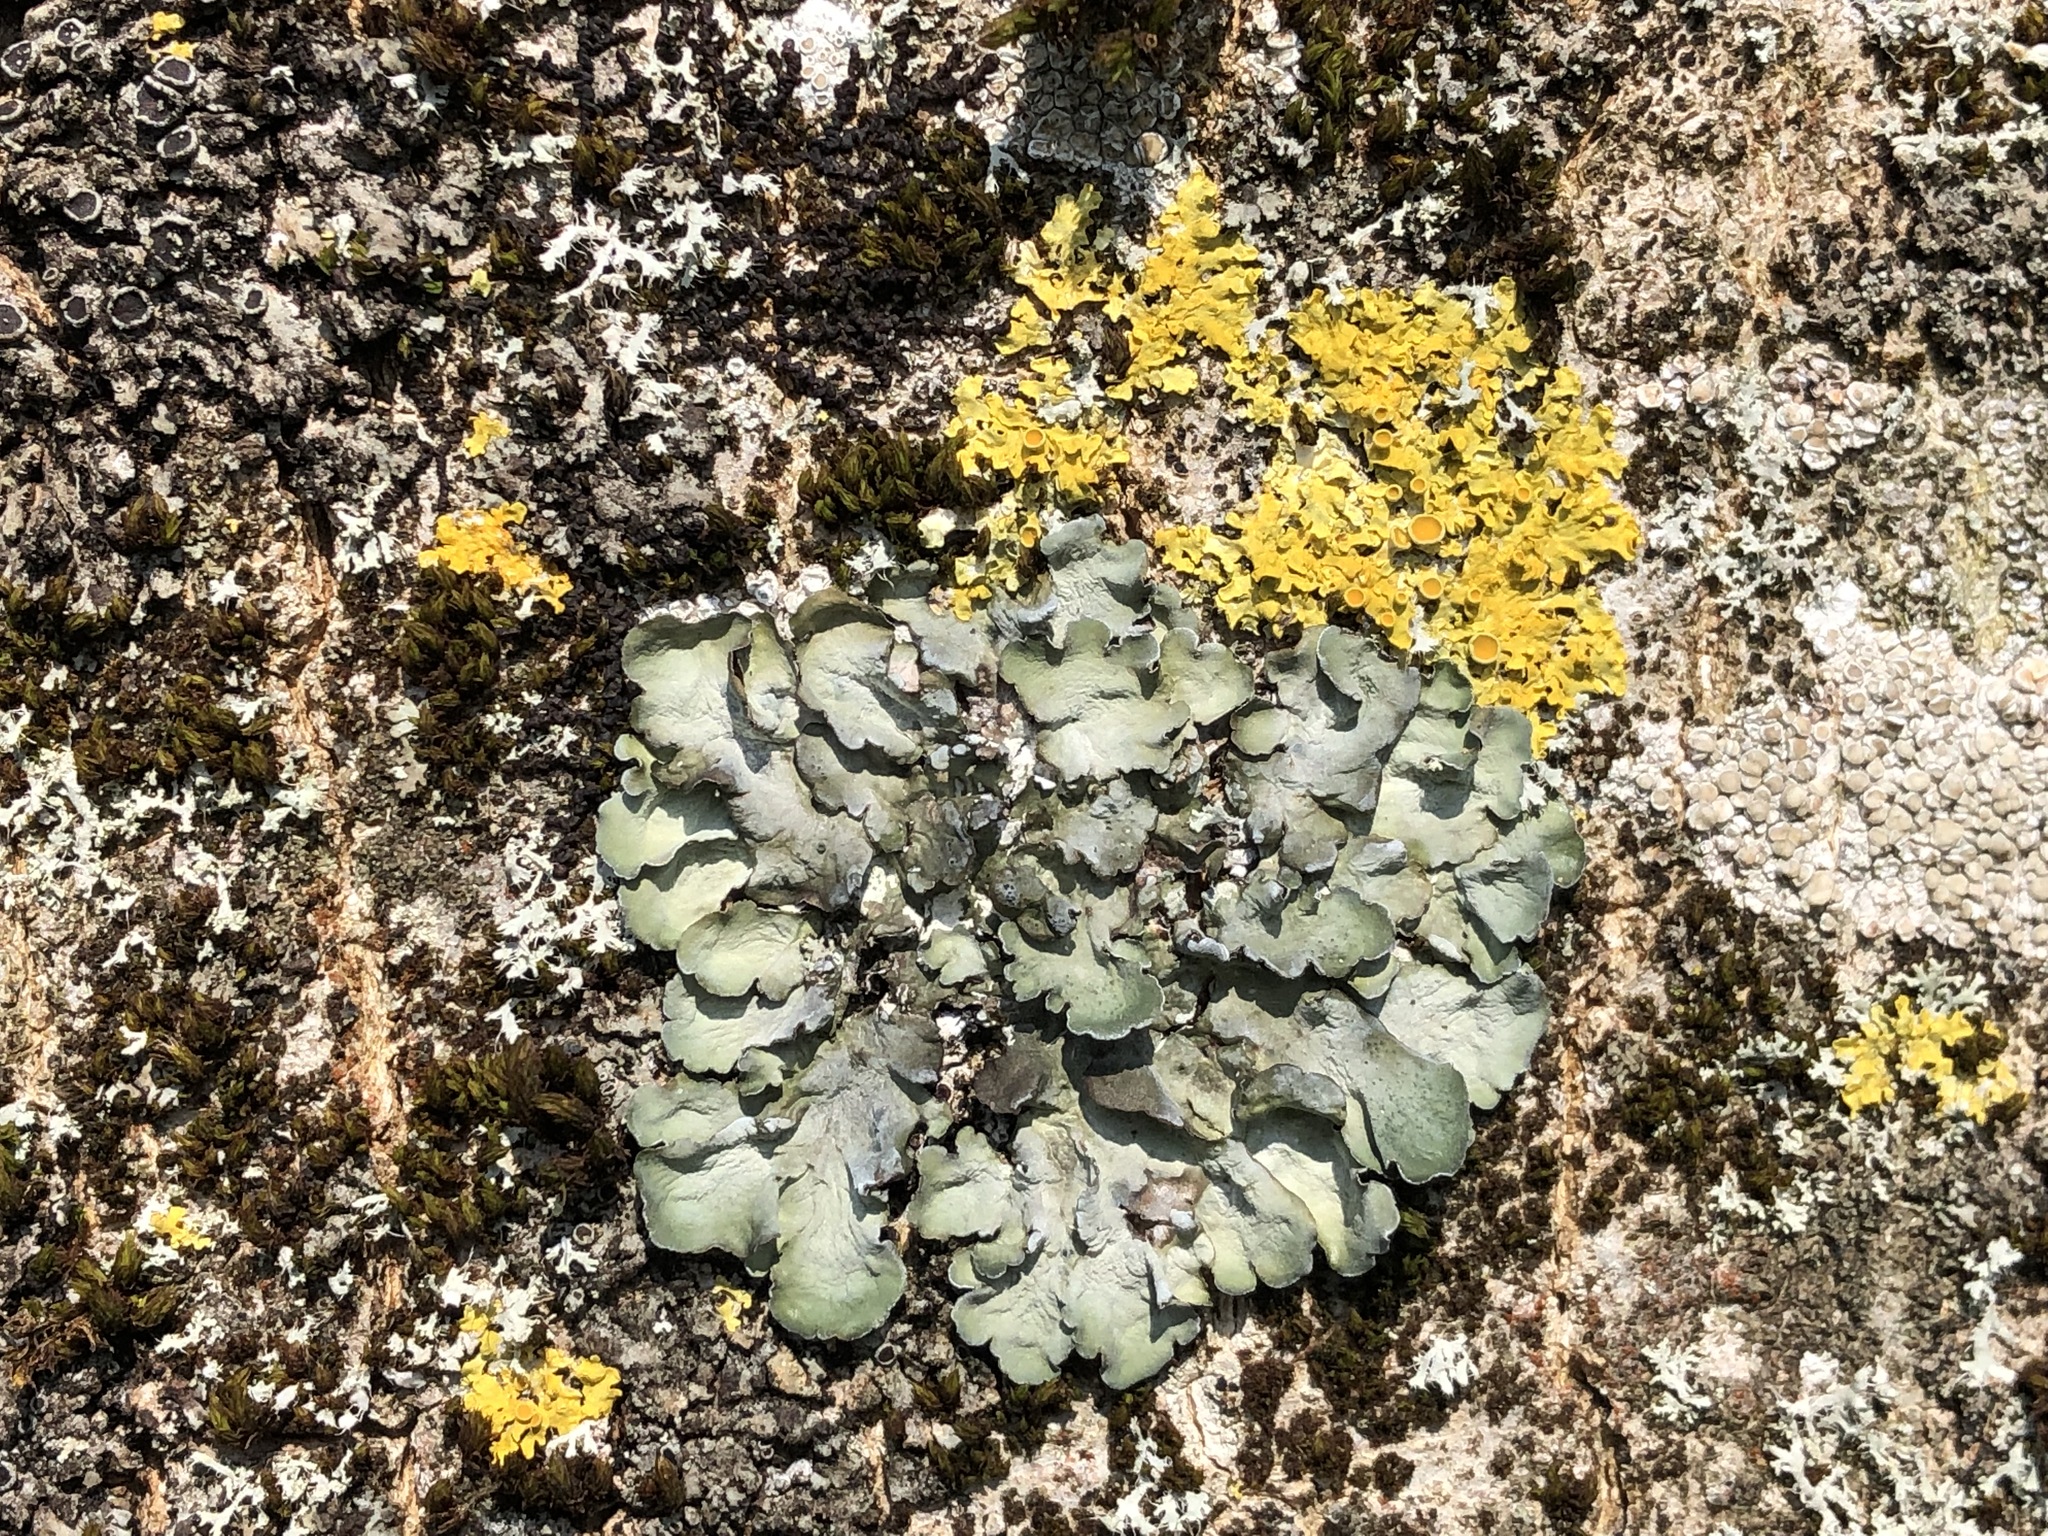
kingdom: Fungi
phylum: Ascomycota
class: Lecanoromycetes
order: Lecanorales
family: Parmeliaceae
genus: Pleurosticta
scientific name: Pleurosticta acetabulum
